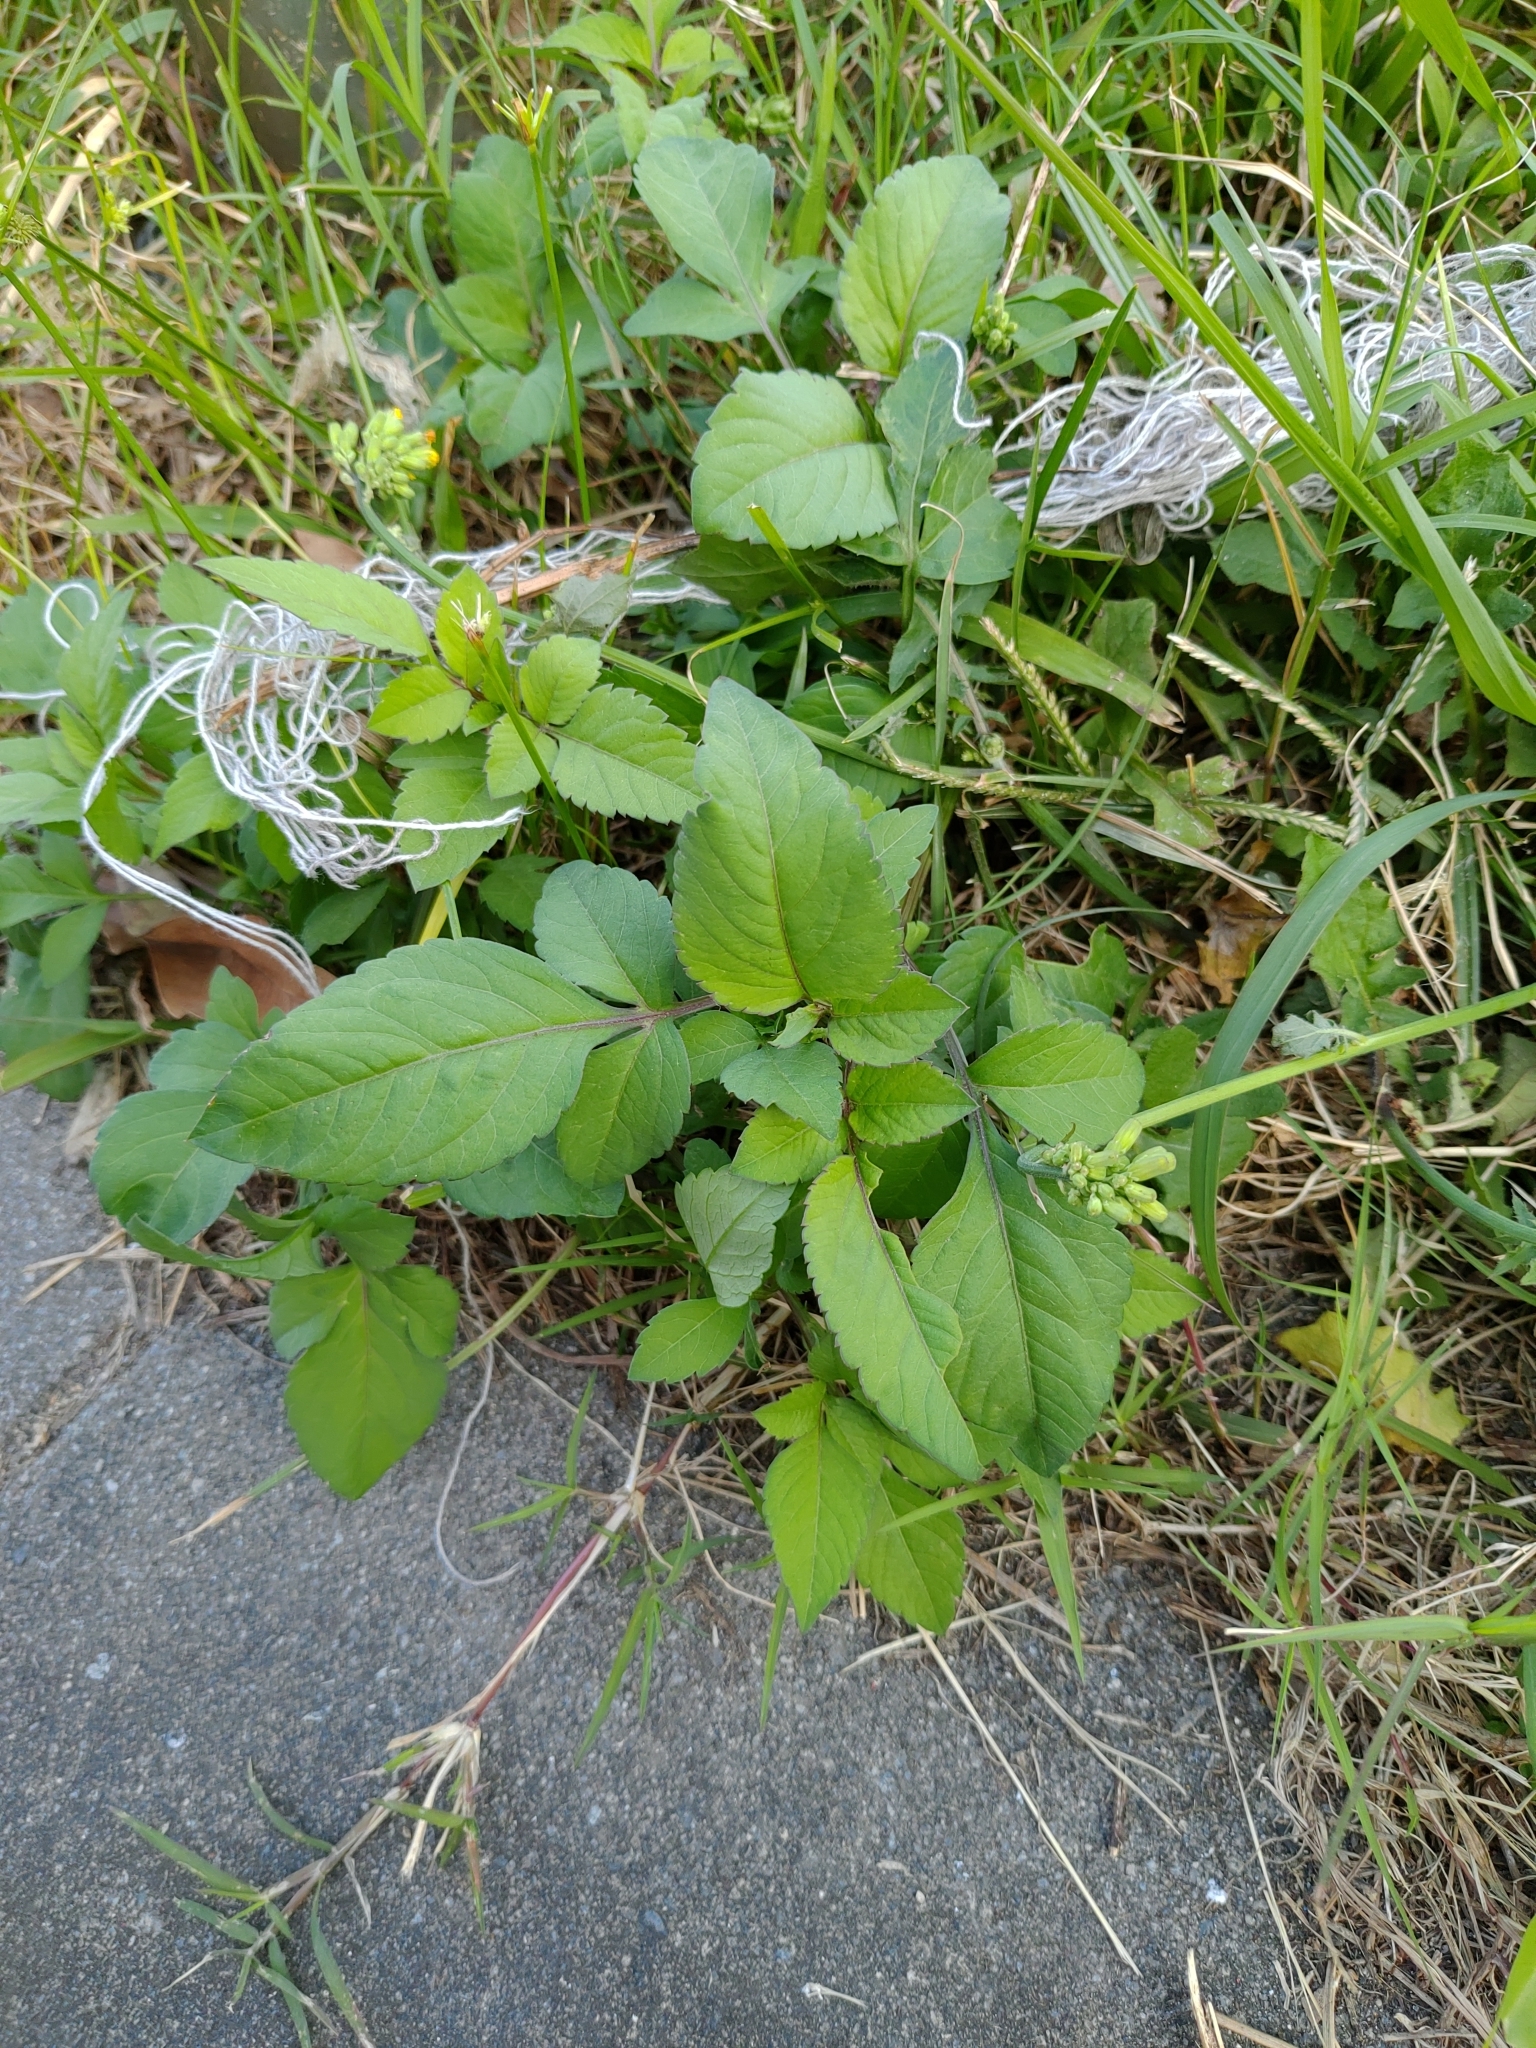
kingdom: Plantae
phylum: Tracheophyta
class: Magnoliopsida
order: Asterales
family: Asteraceae
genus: Bidens
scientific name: Bidens alba
